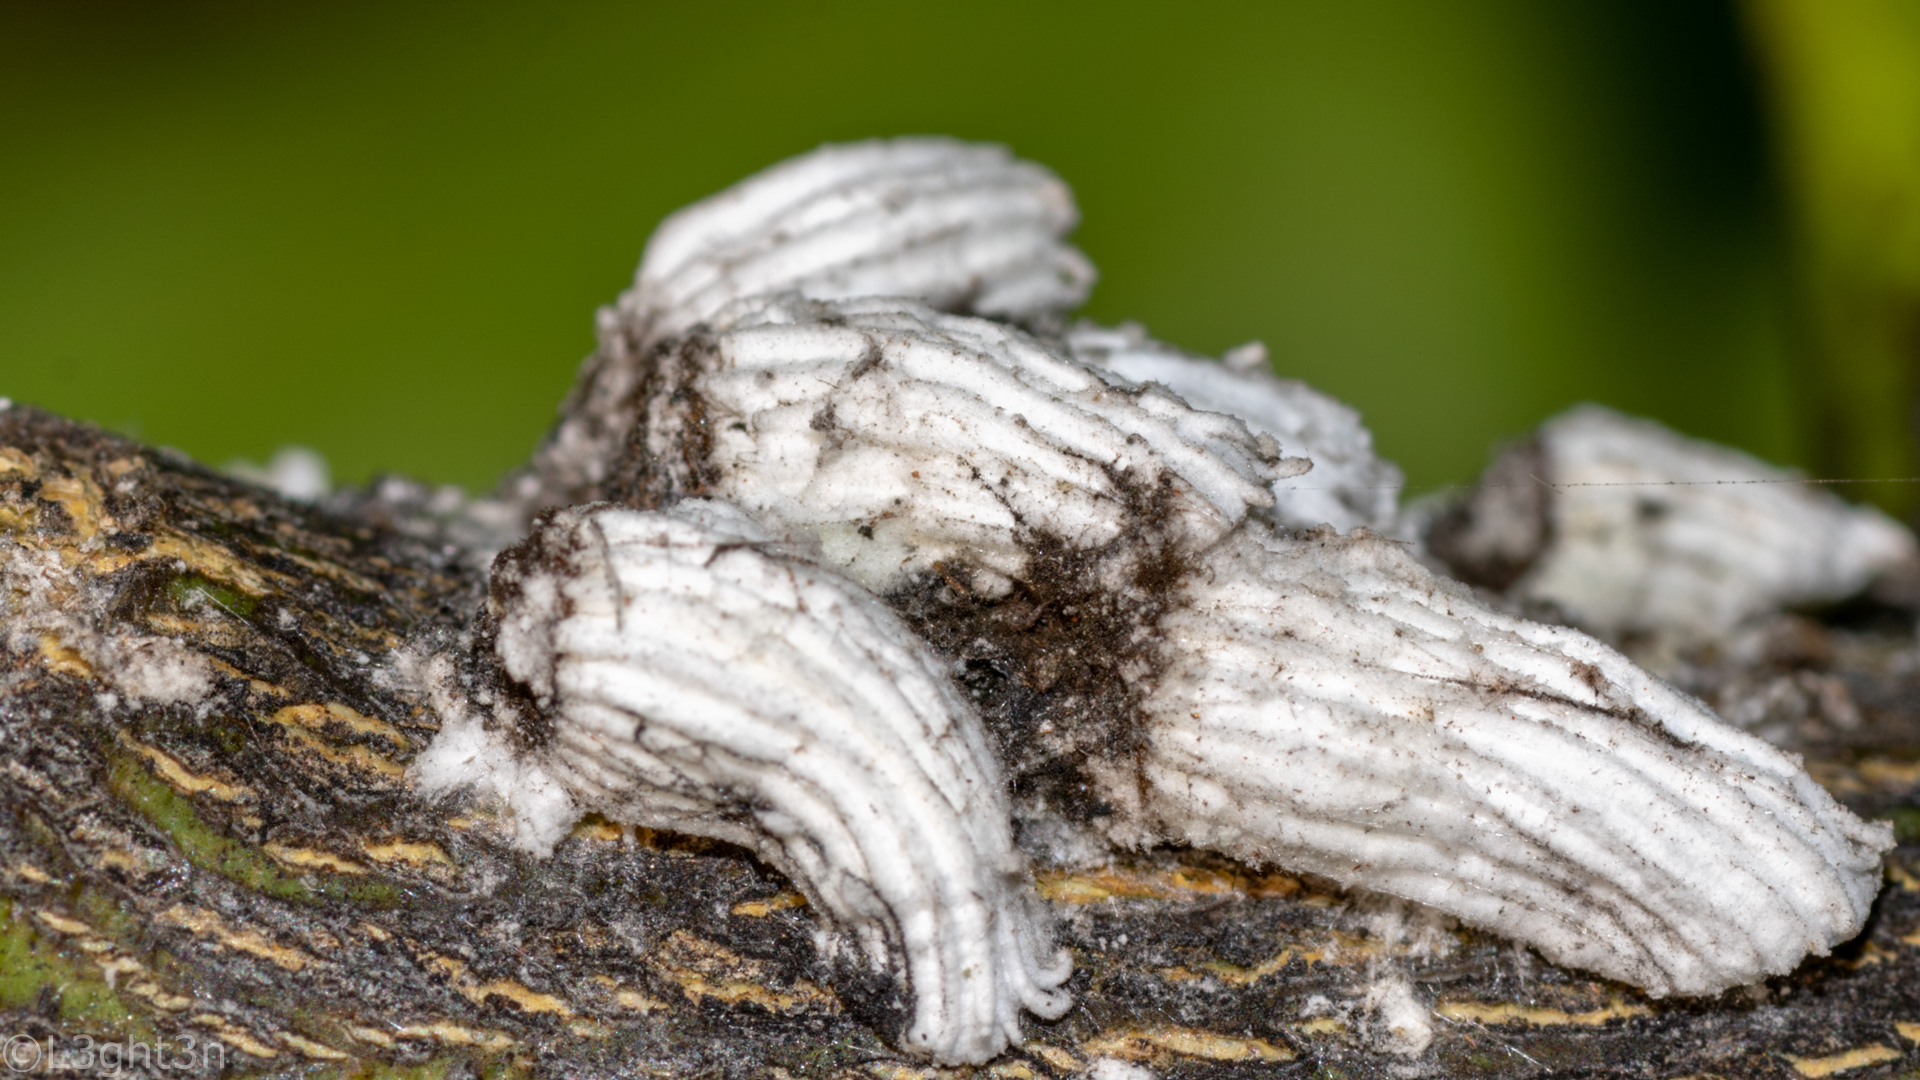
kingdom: Animalia
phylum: Arthropoda
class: Insecta
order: Hemiptera
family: Margarodidae
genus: Icerya
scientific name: Icerya purchasi
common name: Cottony cushion scale
